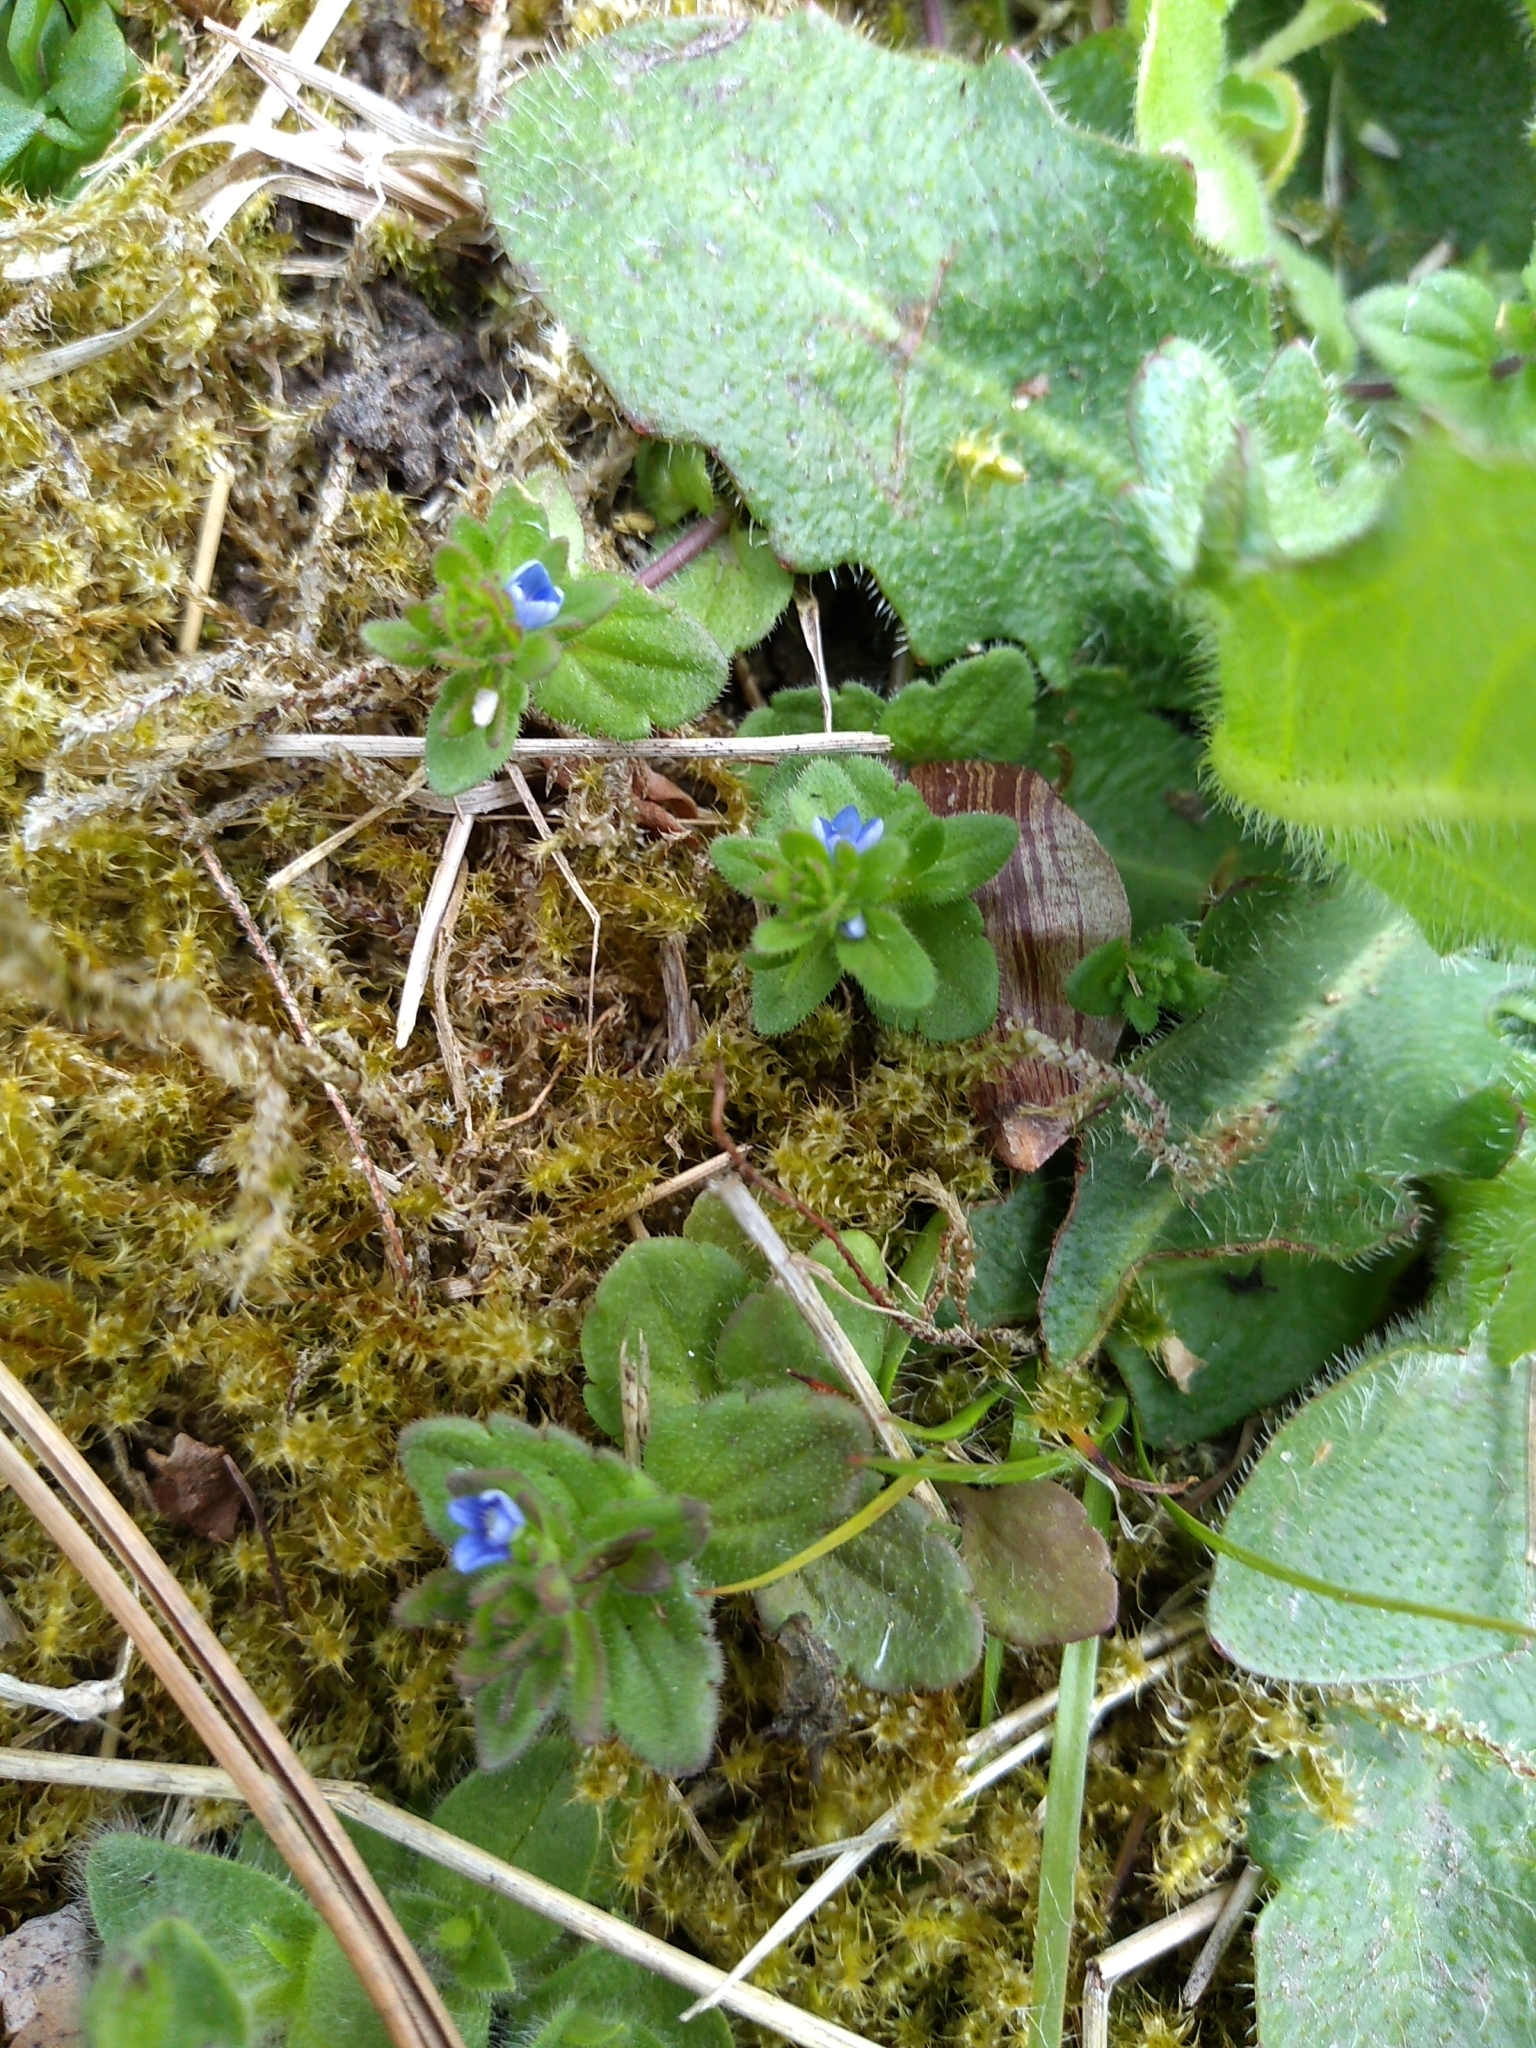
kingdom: Plantae
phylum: Tracheophyta
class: Magnoliopsida
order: Lamiales
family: Plantaginaceae
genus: Veronica
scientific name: Veronica arvensis
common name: Corn speedwell
